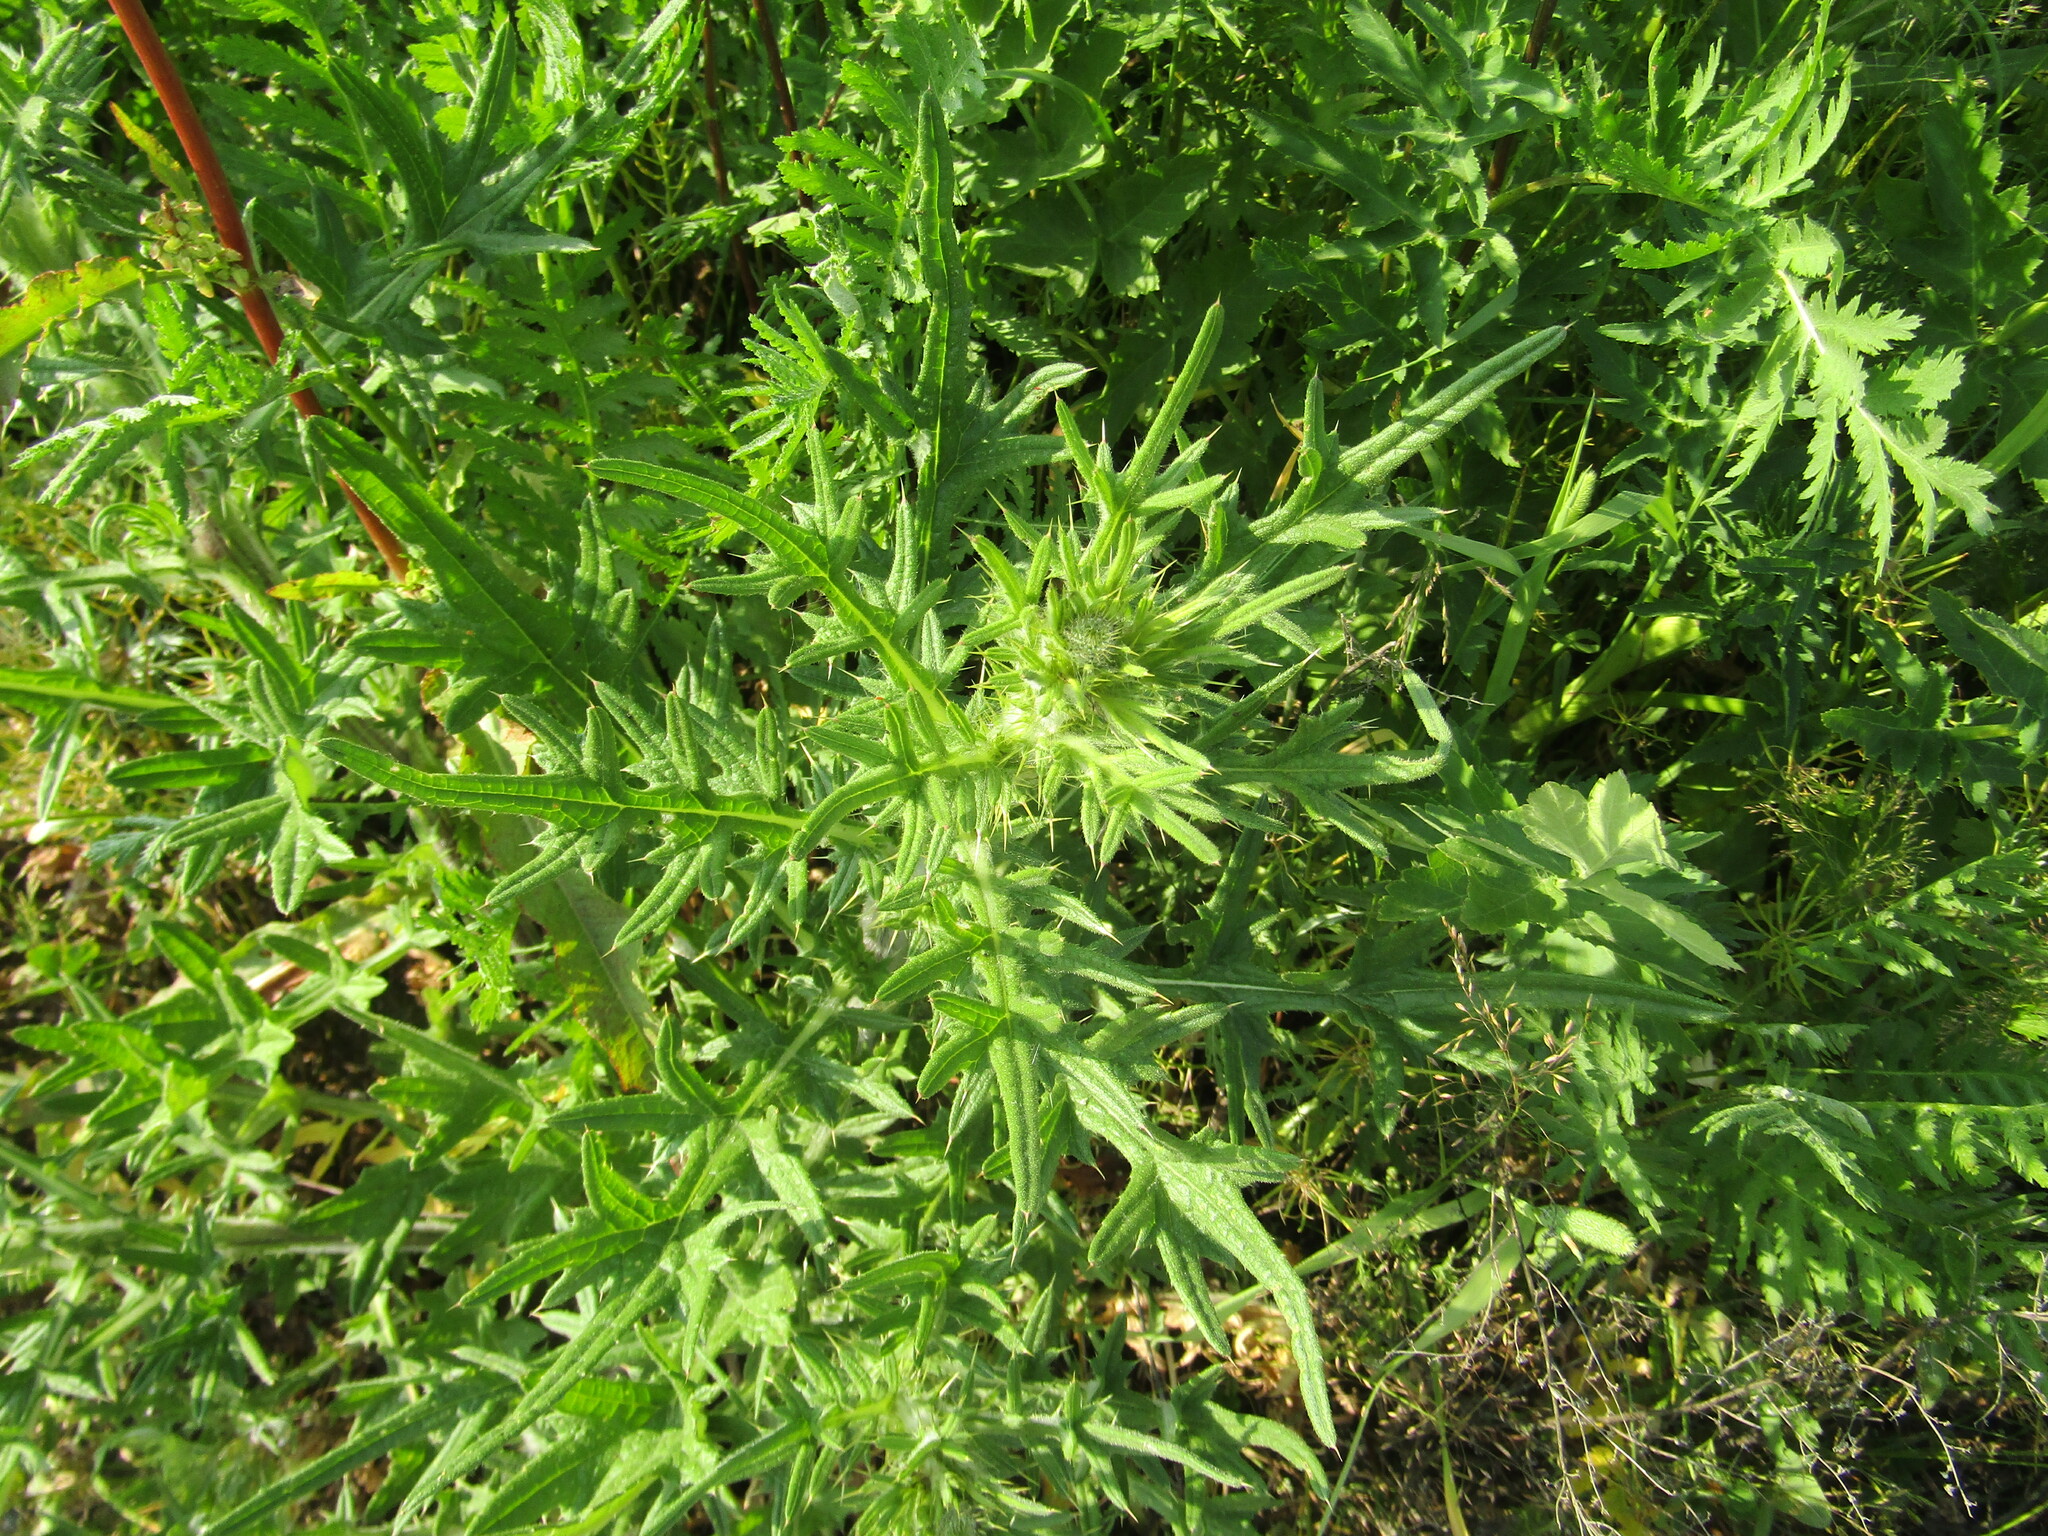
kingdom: Plantae
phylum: Tracheophyta
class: Magnoliopsida
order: Asterales
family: Asteraceae
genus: Cirsium
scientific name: Cirsium vulgare
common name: Bull thistle
